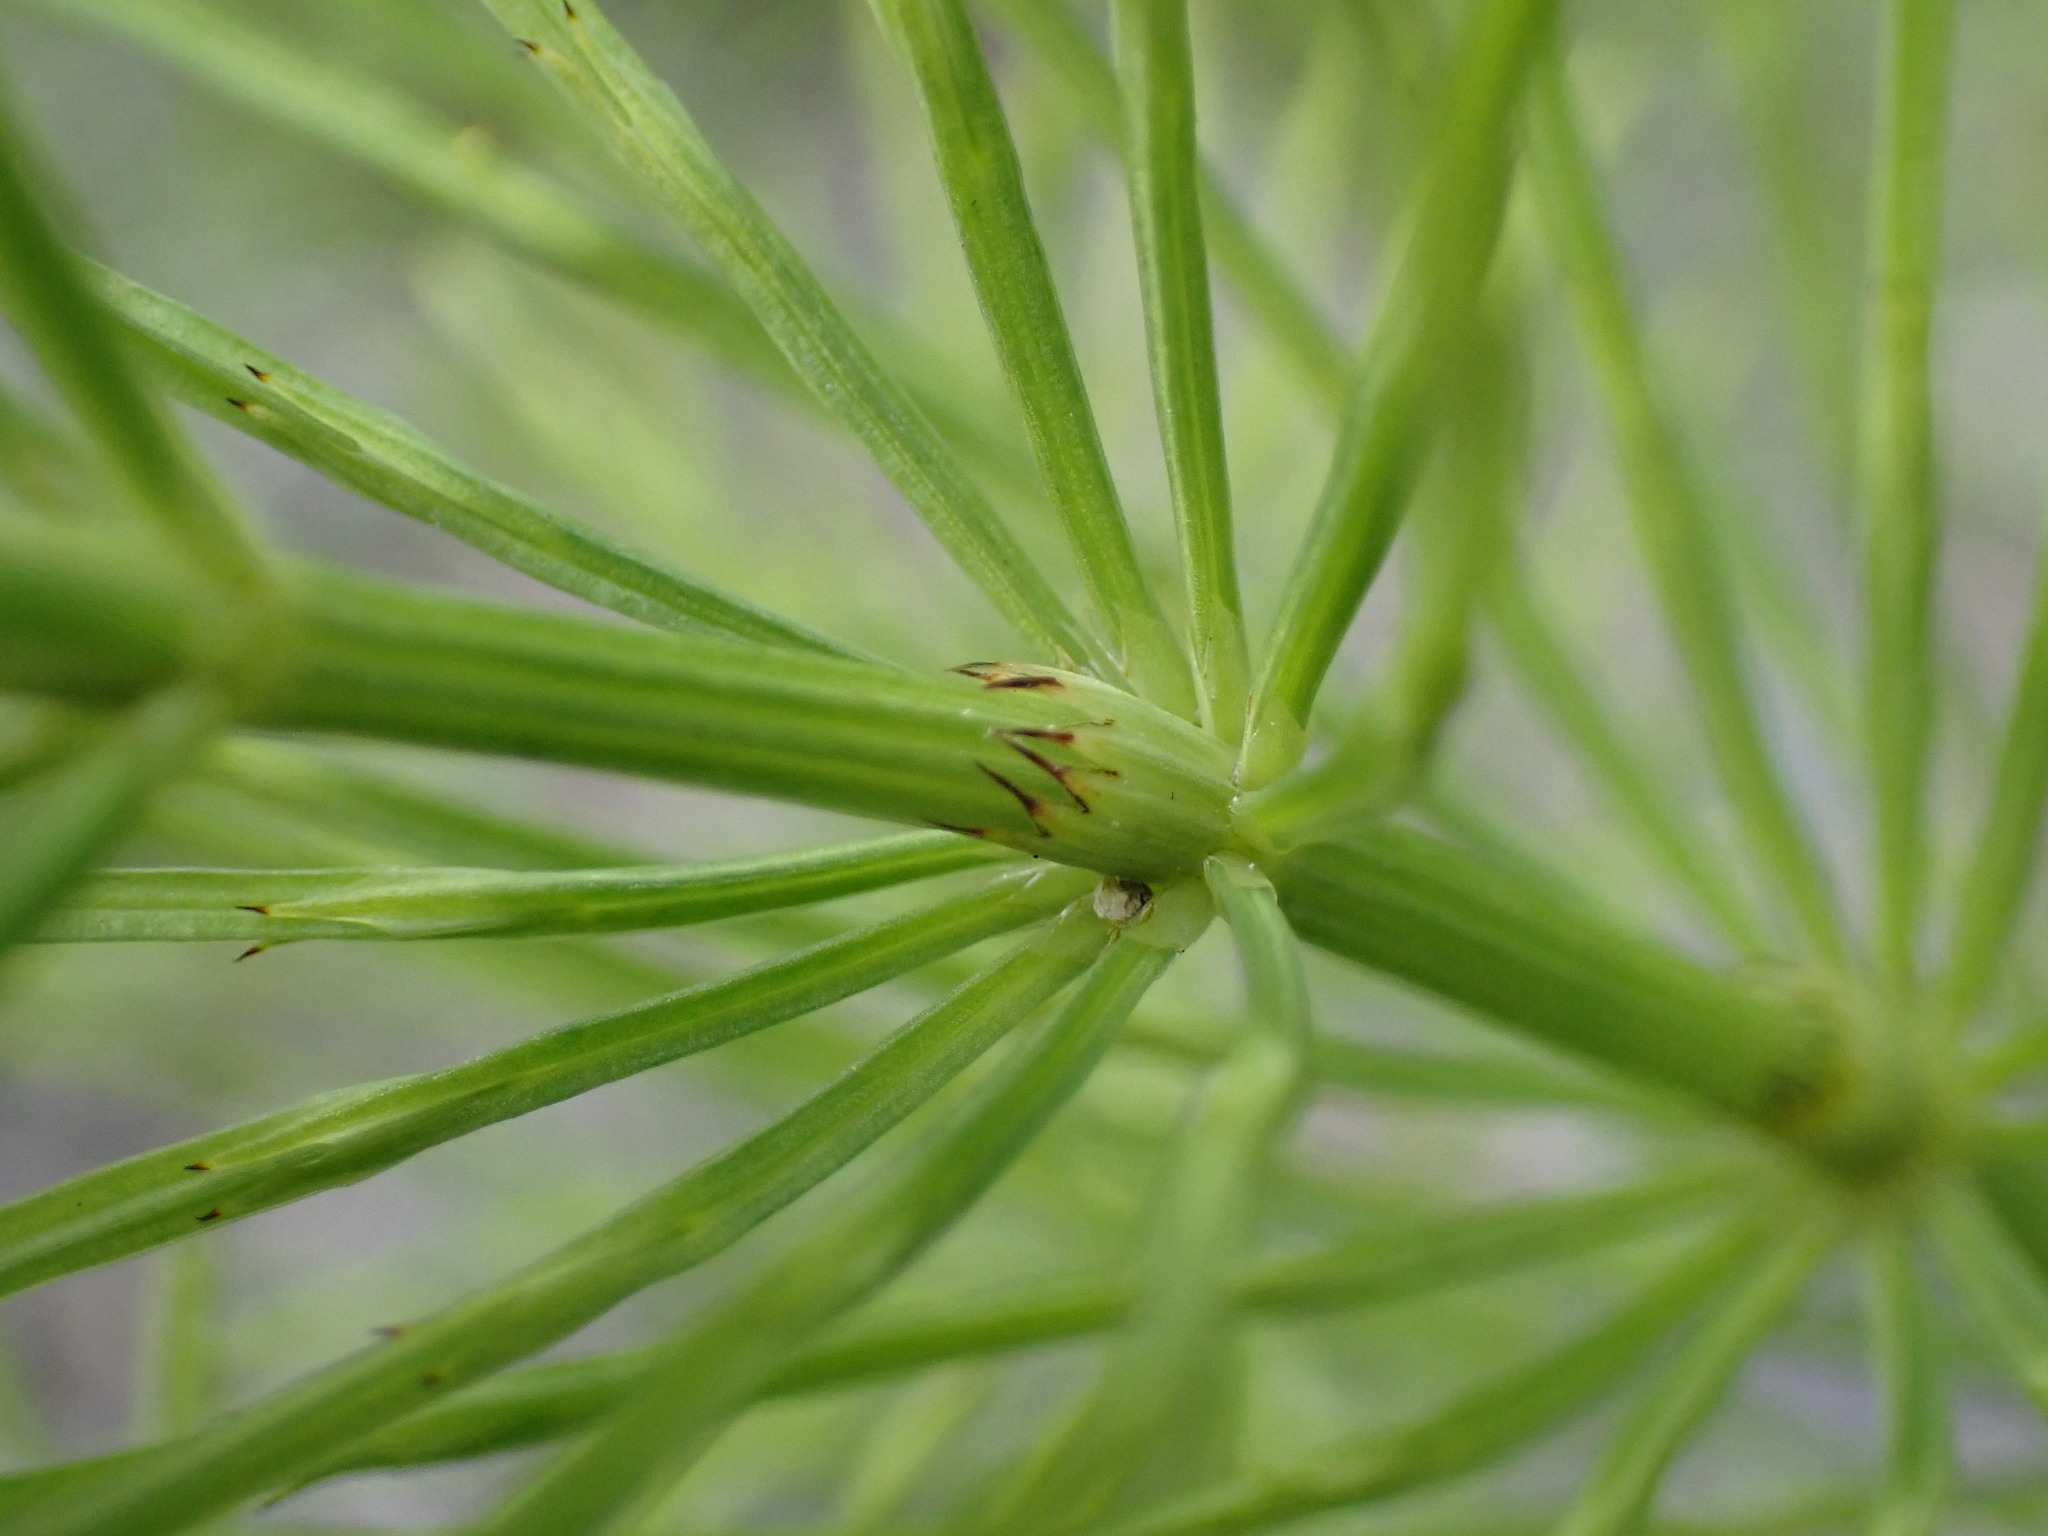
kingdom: Plantae
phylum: Tracheophyta
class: Polypodiopsida
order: Equisetales
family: Equisetaceae
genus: Equisetum
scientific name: Equisetum arvense
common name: Field horsetail
